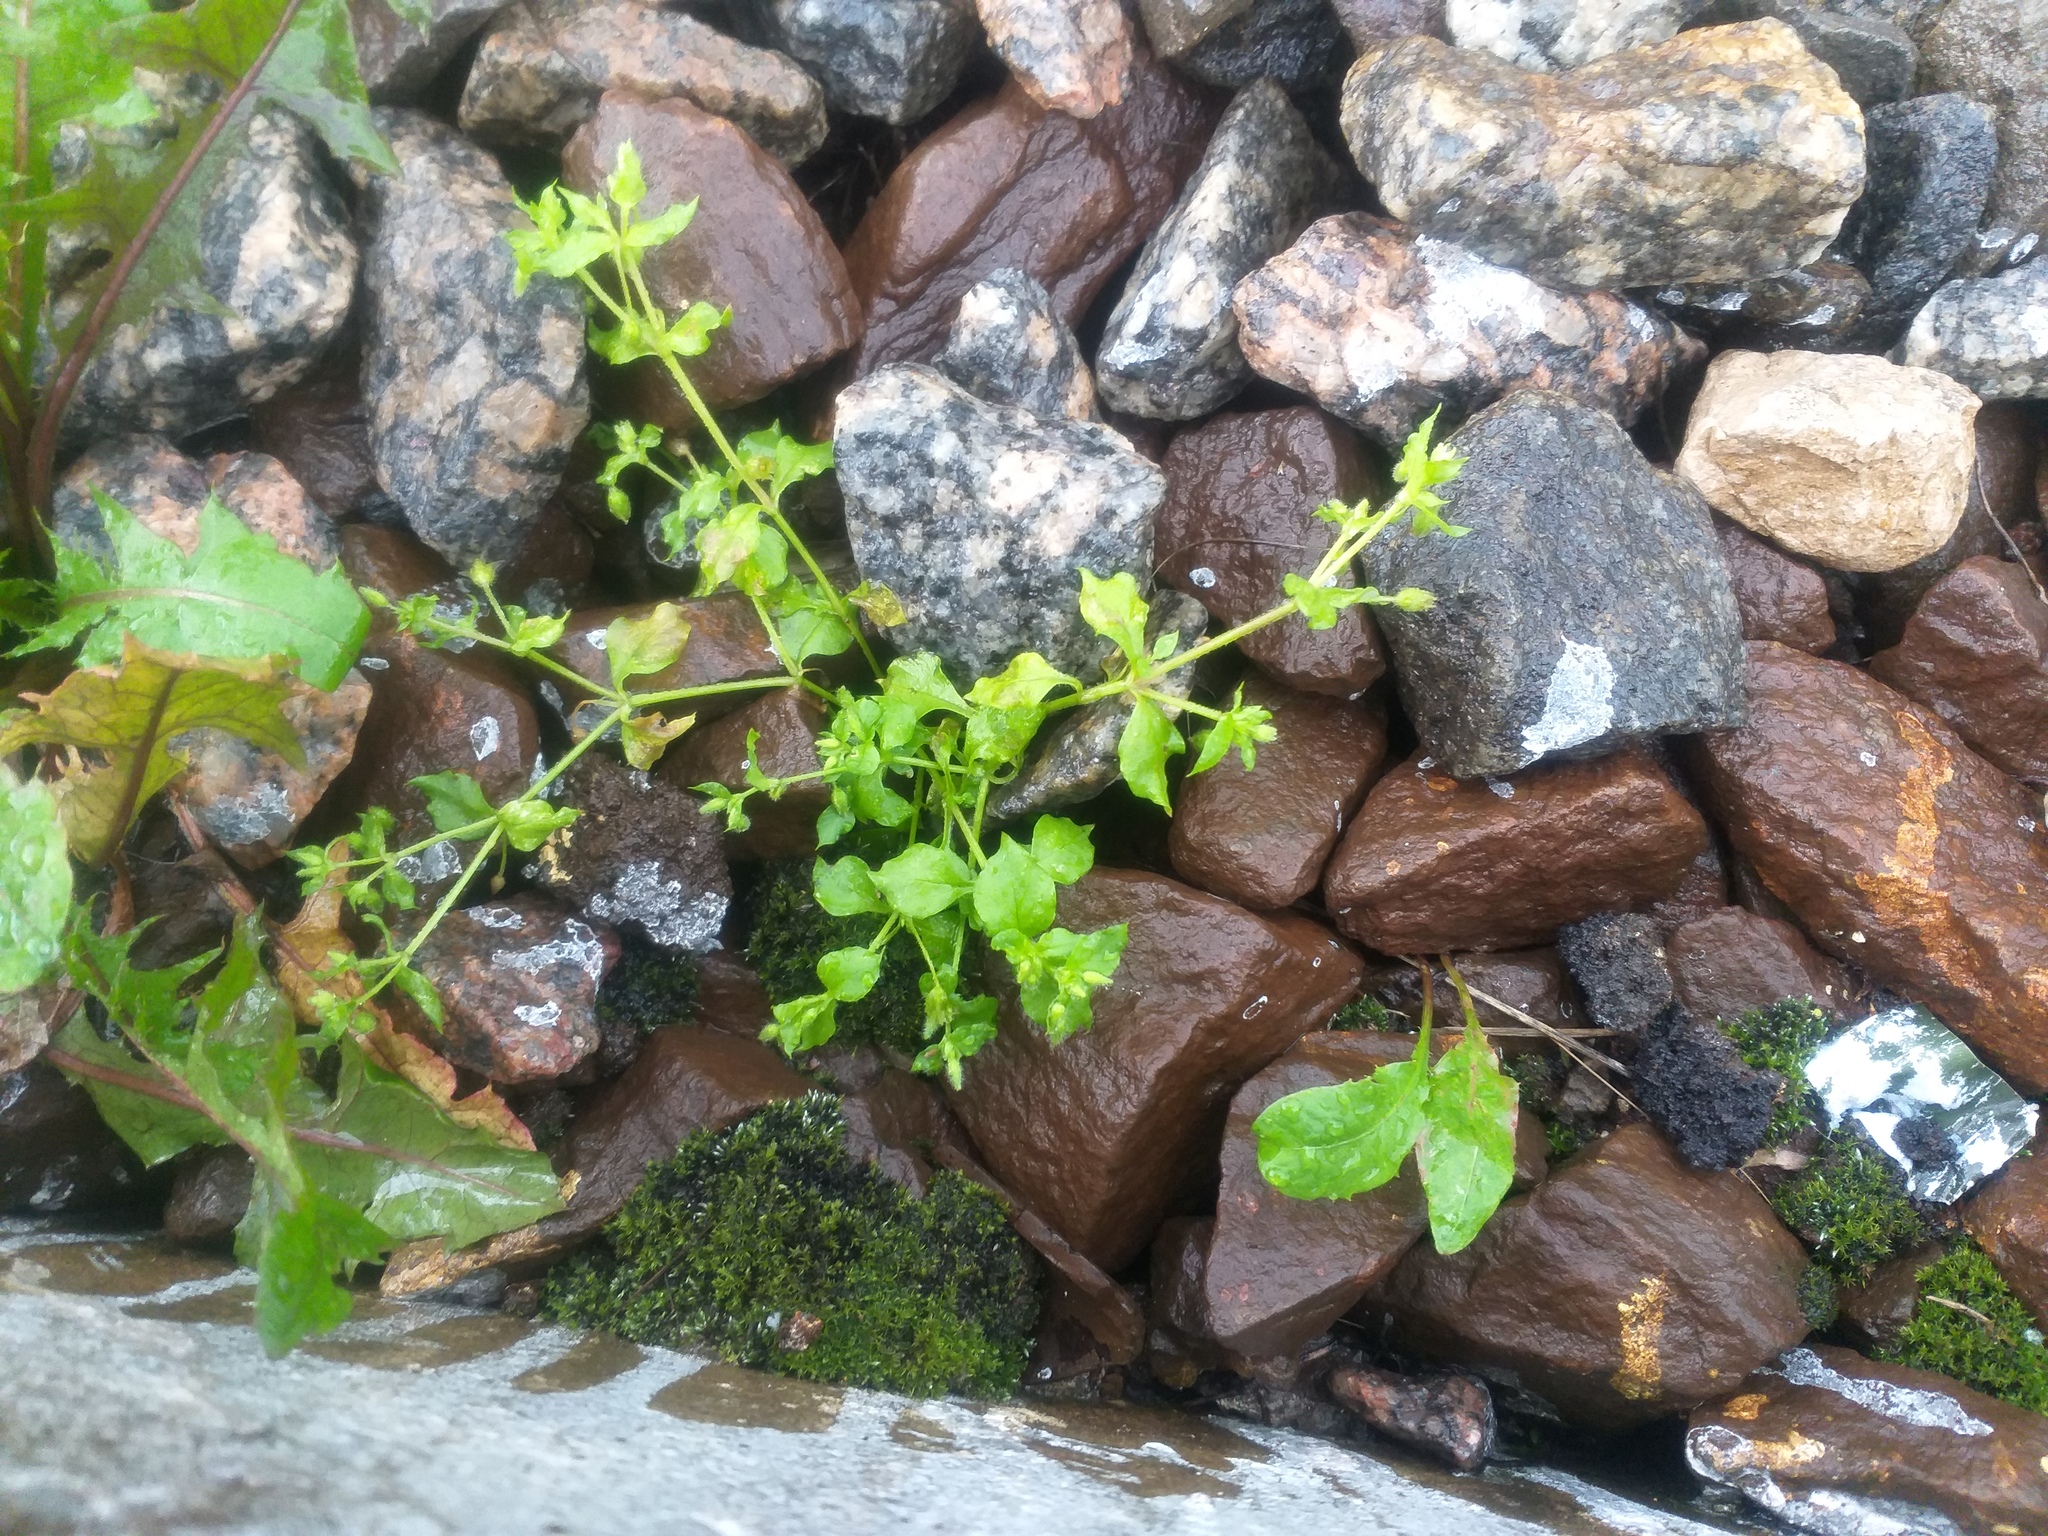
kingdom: Plantae
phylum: Tracheophyta
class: Magnoliopsida
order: Caryophyllales
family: Caryophyllaceae
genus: Stellaria
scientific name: Stellaria media
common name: Common chickweed
